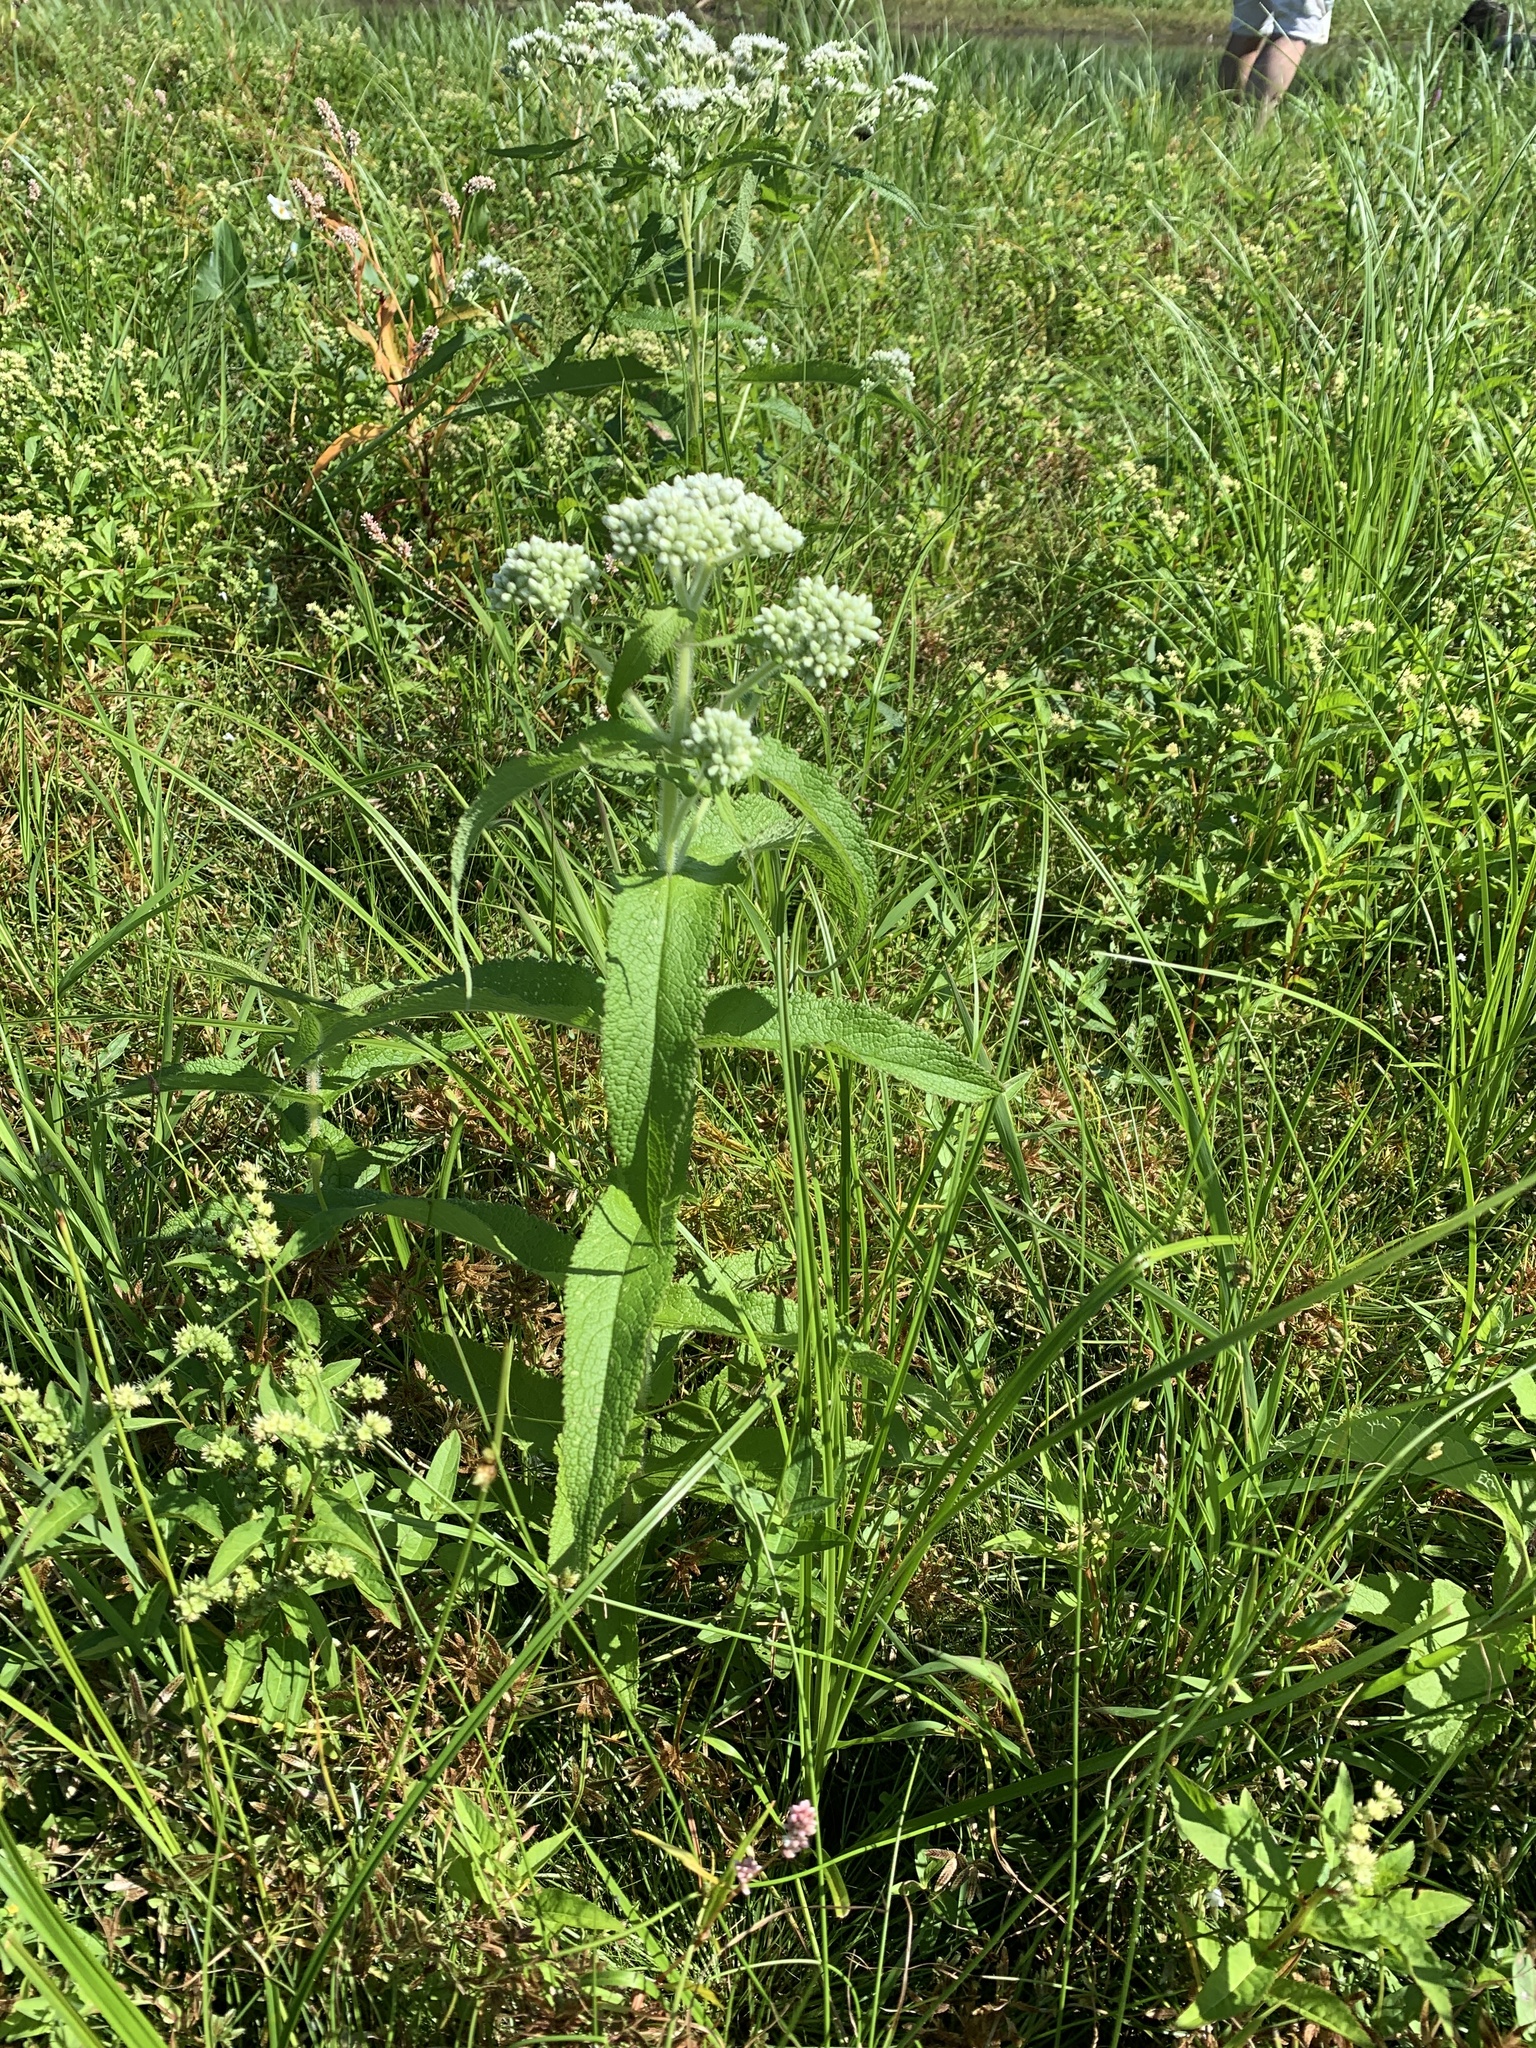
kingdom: Plantae
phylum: Tracheophyta
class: Magnoliopsida
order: Asterales
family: Asteraceae
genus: Eupatorium
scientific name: Eupatorium perfoliatum
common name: Boneset
